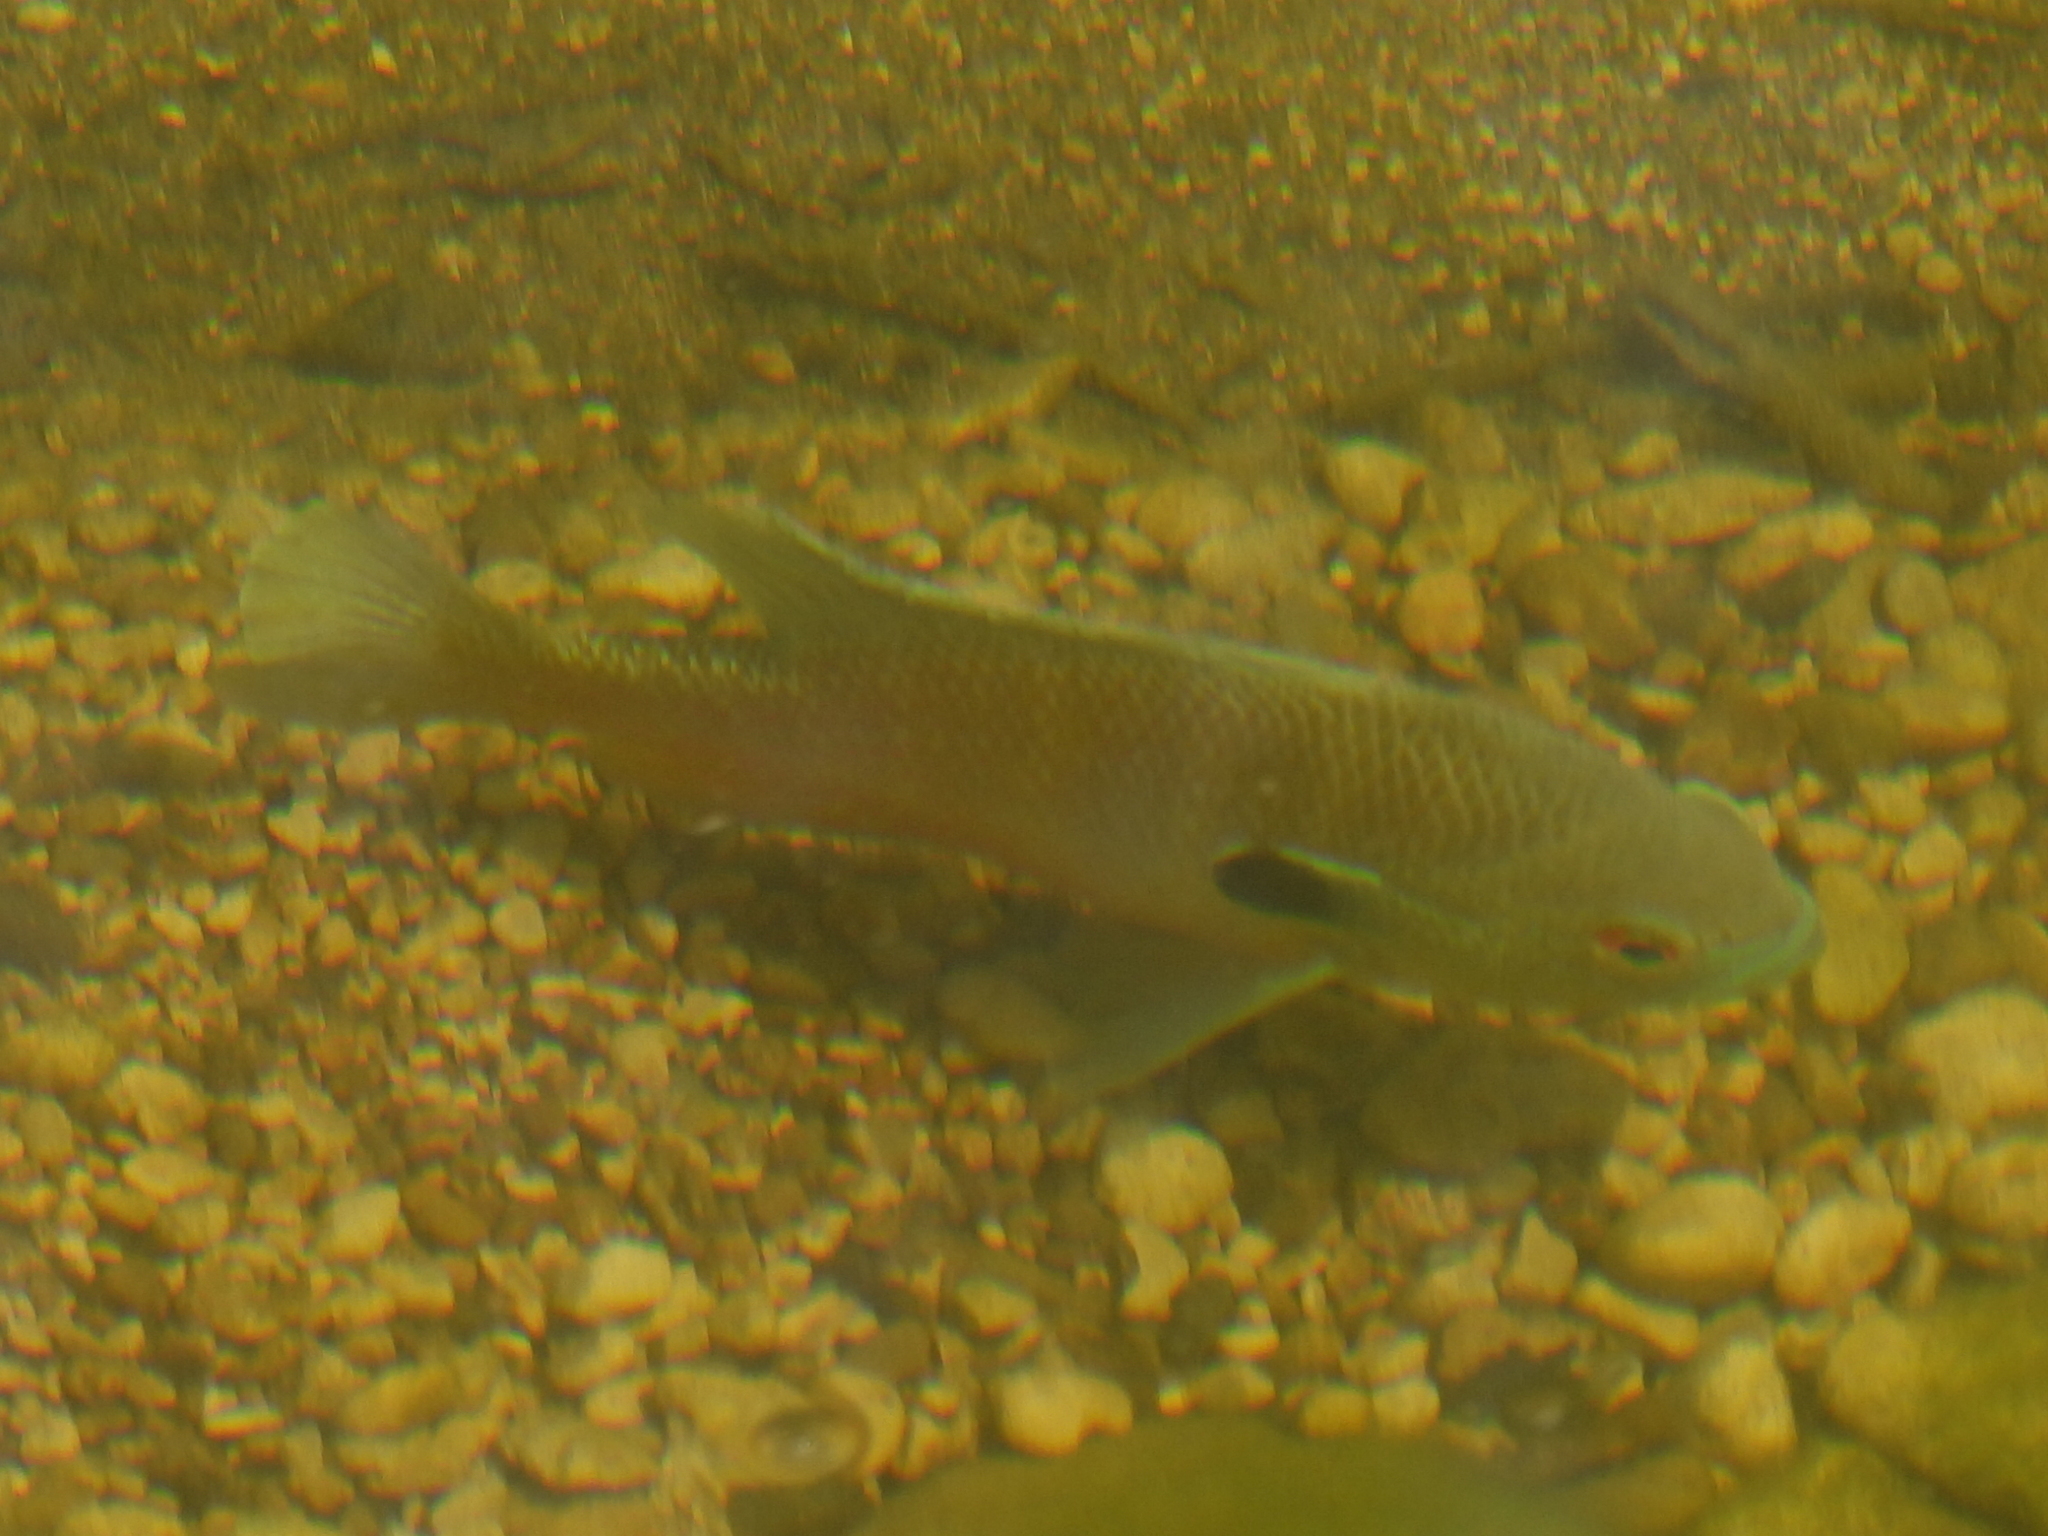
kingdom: Animalia
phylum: Chordata
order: Perciformes
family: Centrarchidae
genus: Lepomis
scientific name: Lepomis aquilensis
